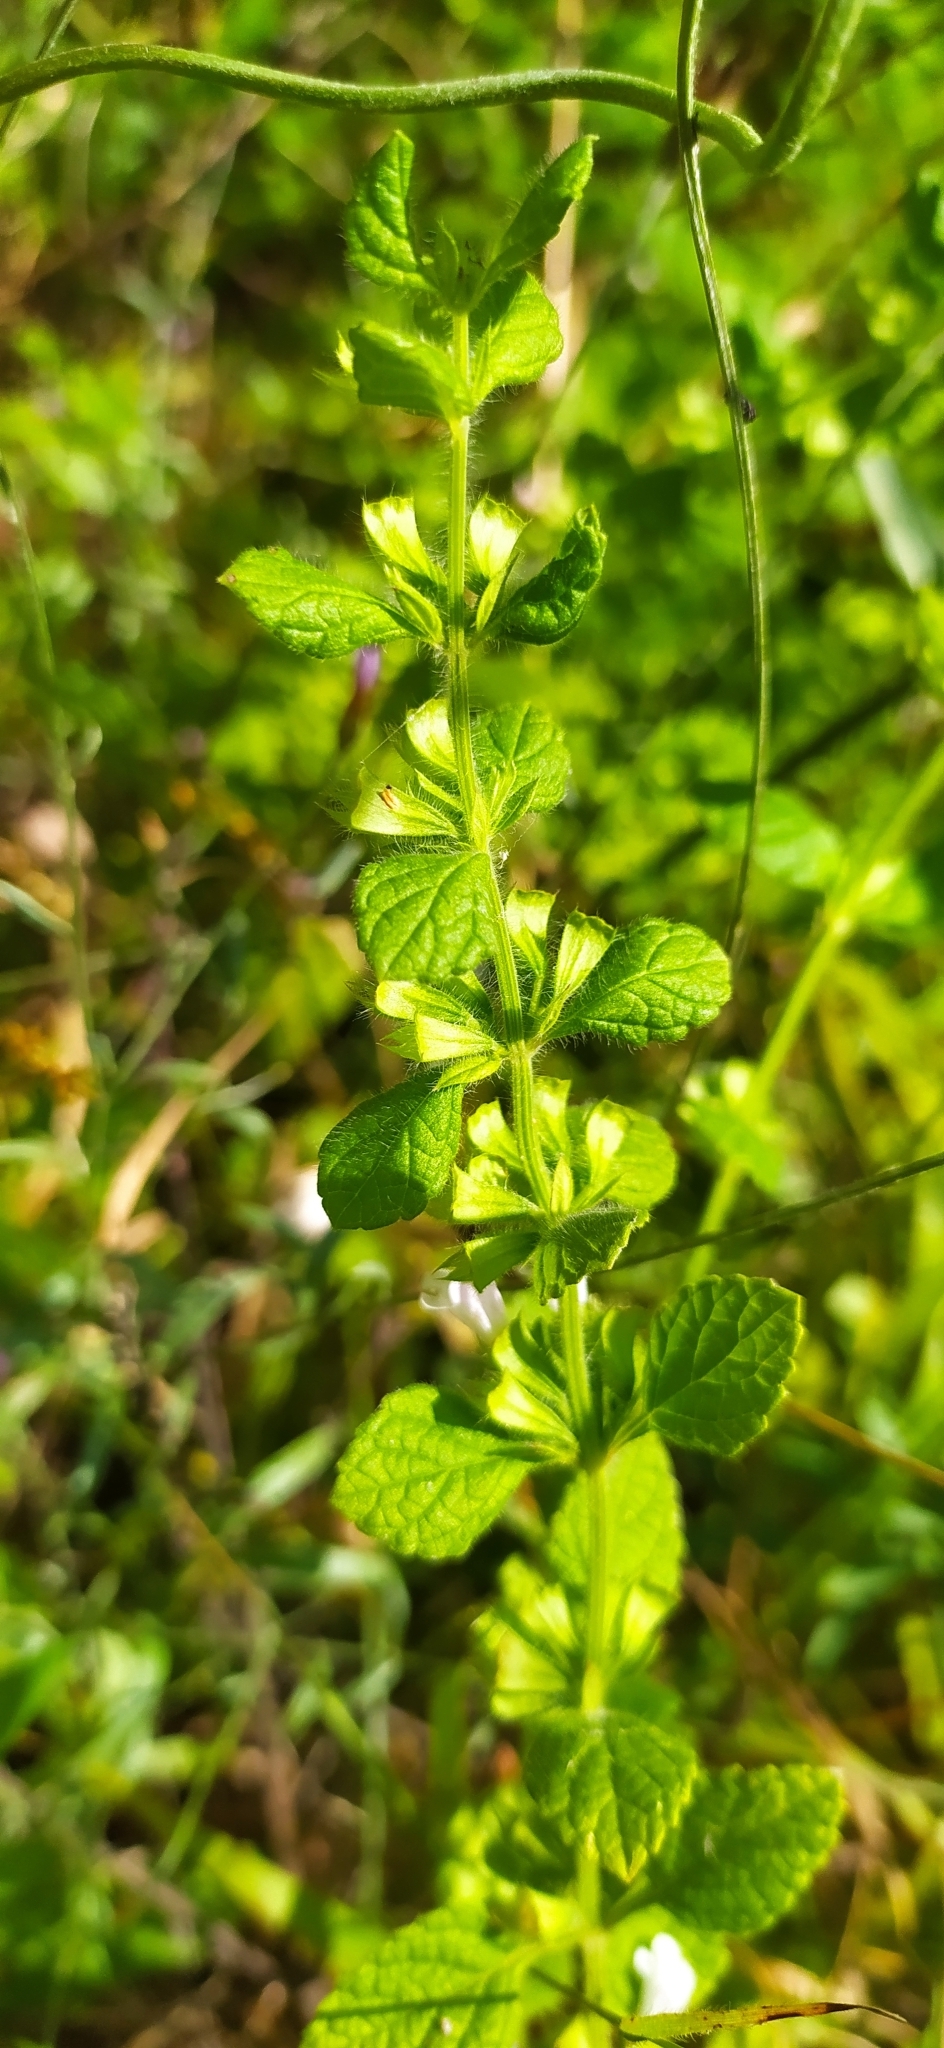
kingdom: Plantae
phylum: Tracheophyta
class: Magnoliopsida
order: Lamiales
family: Lamiaceae
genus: Melissa
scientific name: Melissa officinalis
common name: Balm
